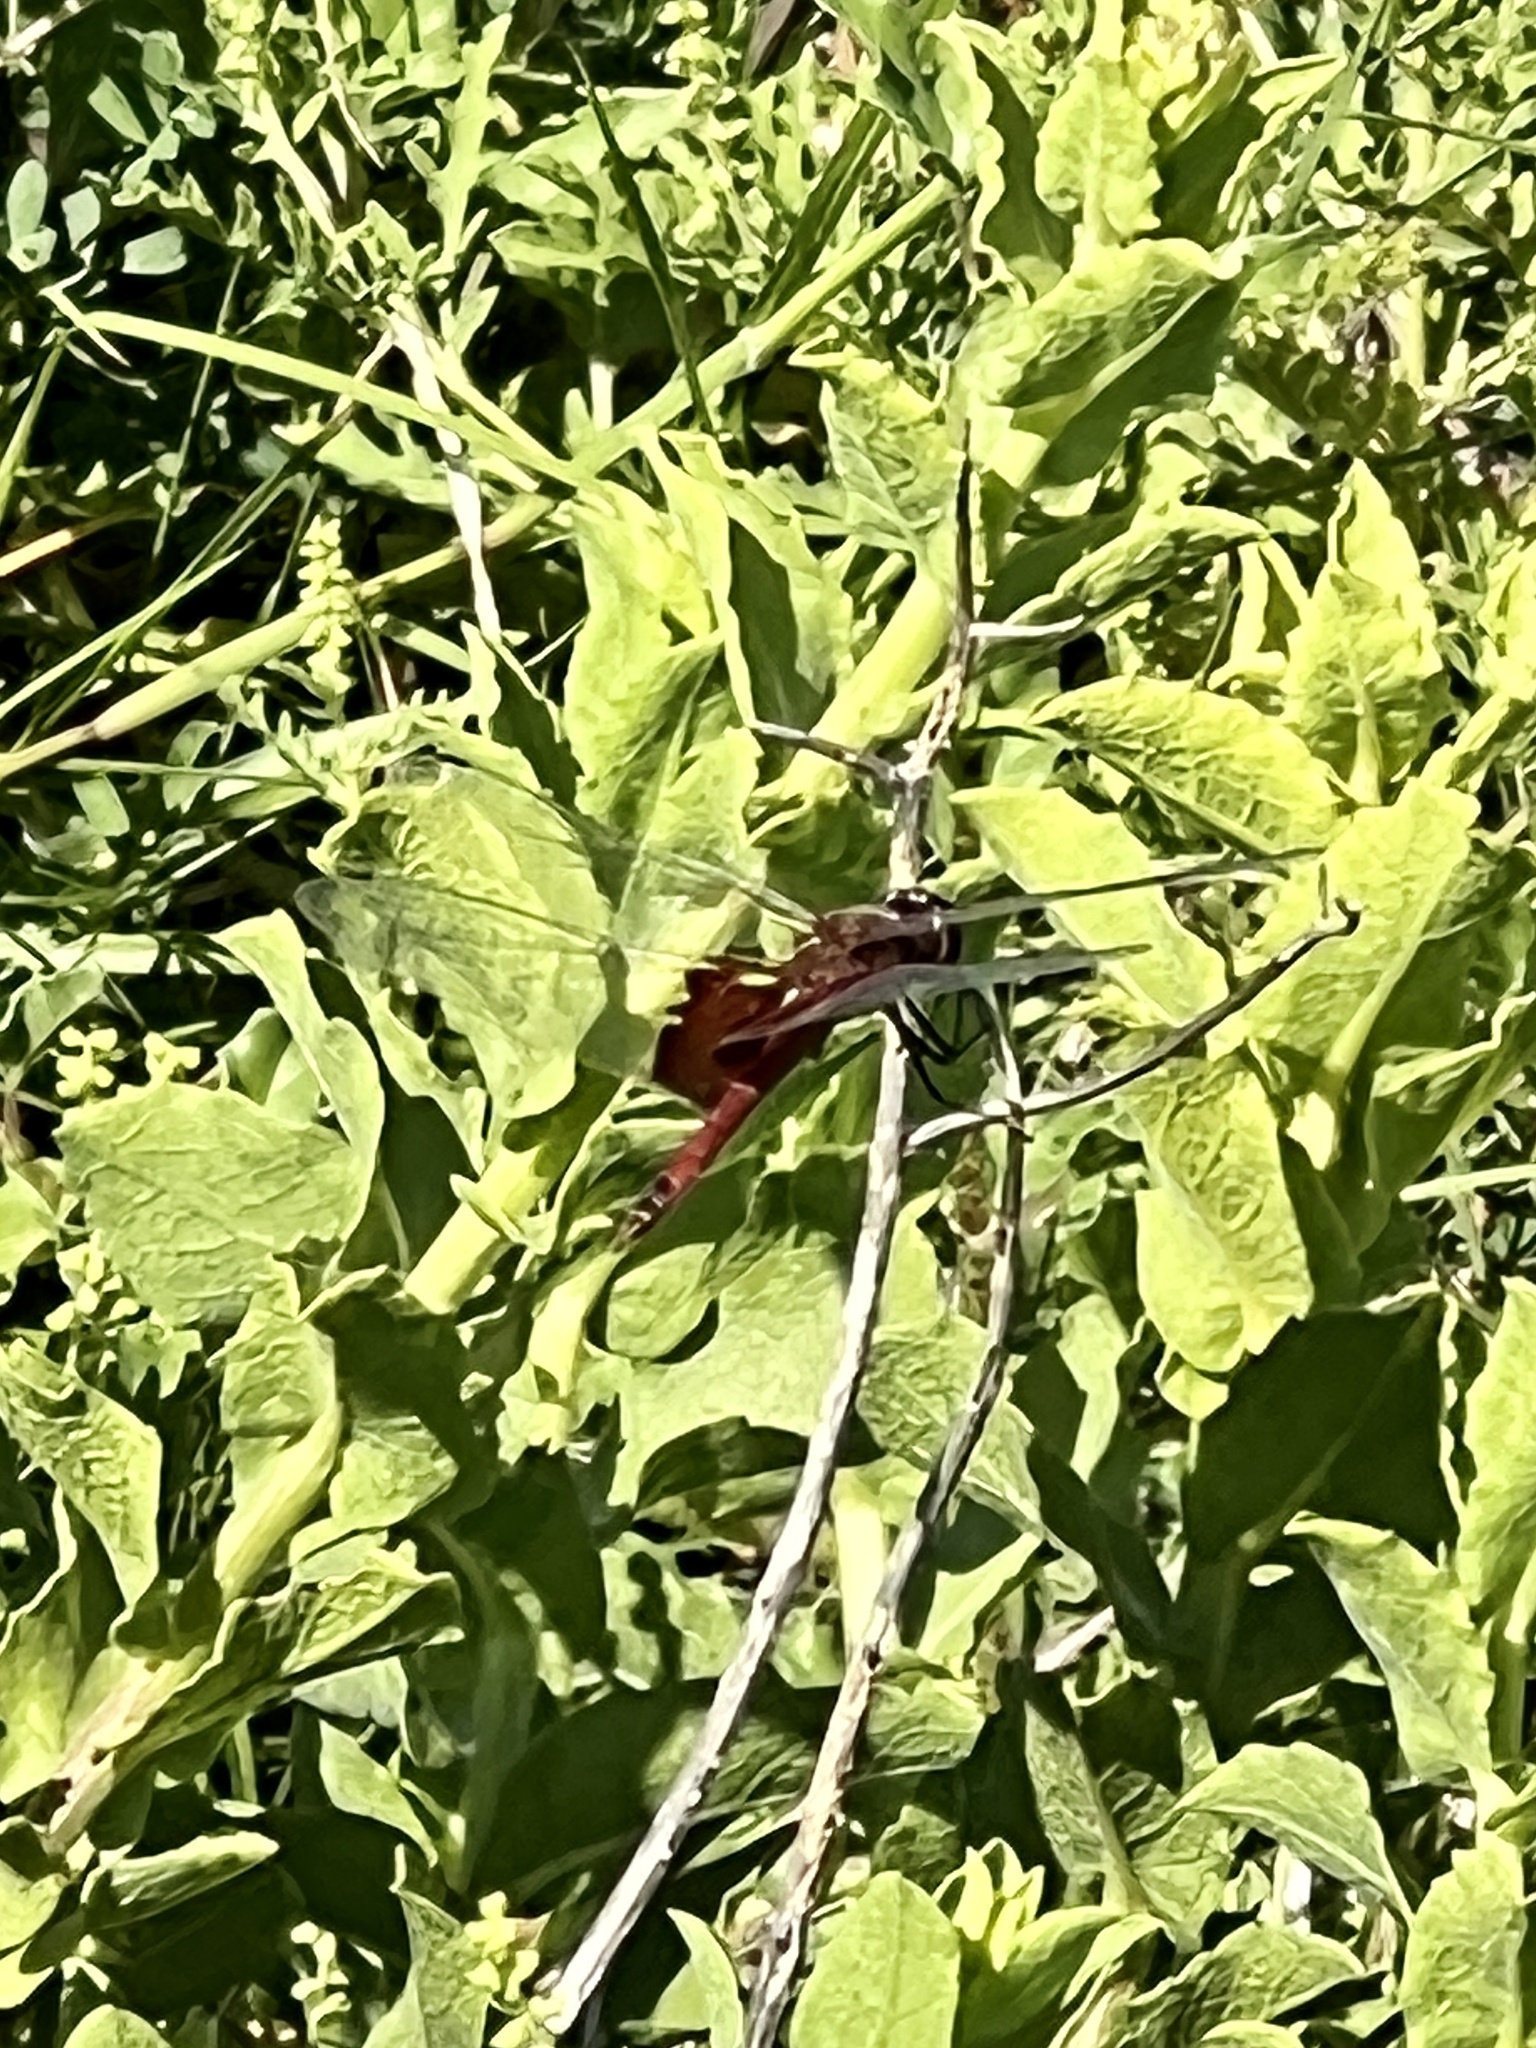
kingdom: Animalia
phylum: Arthropoda
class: Insecta
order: Odonata
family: Libellulidae
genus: Tramea
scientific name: Tramea onusta
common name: Red saddlebags
